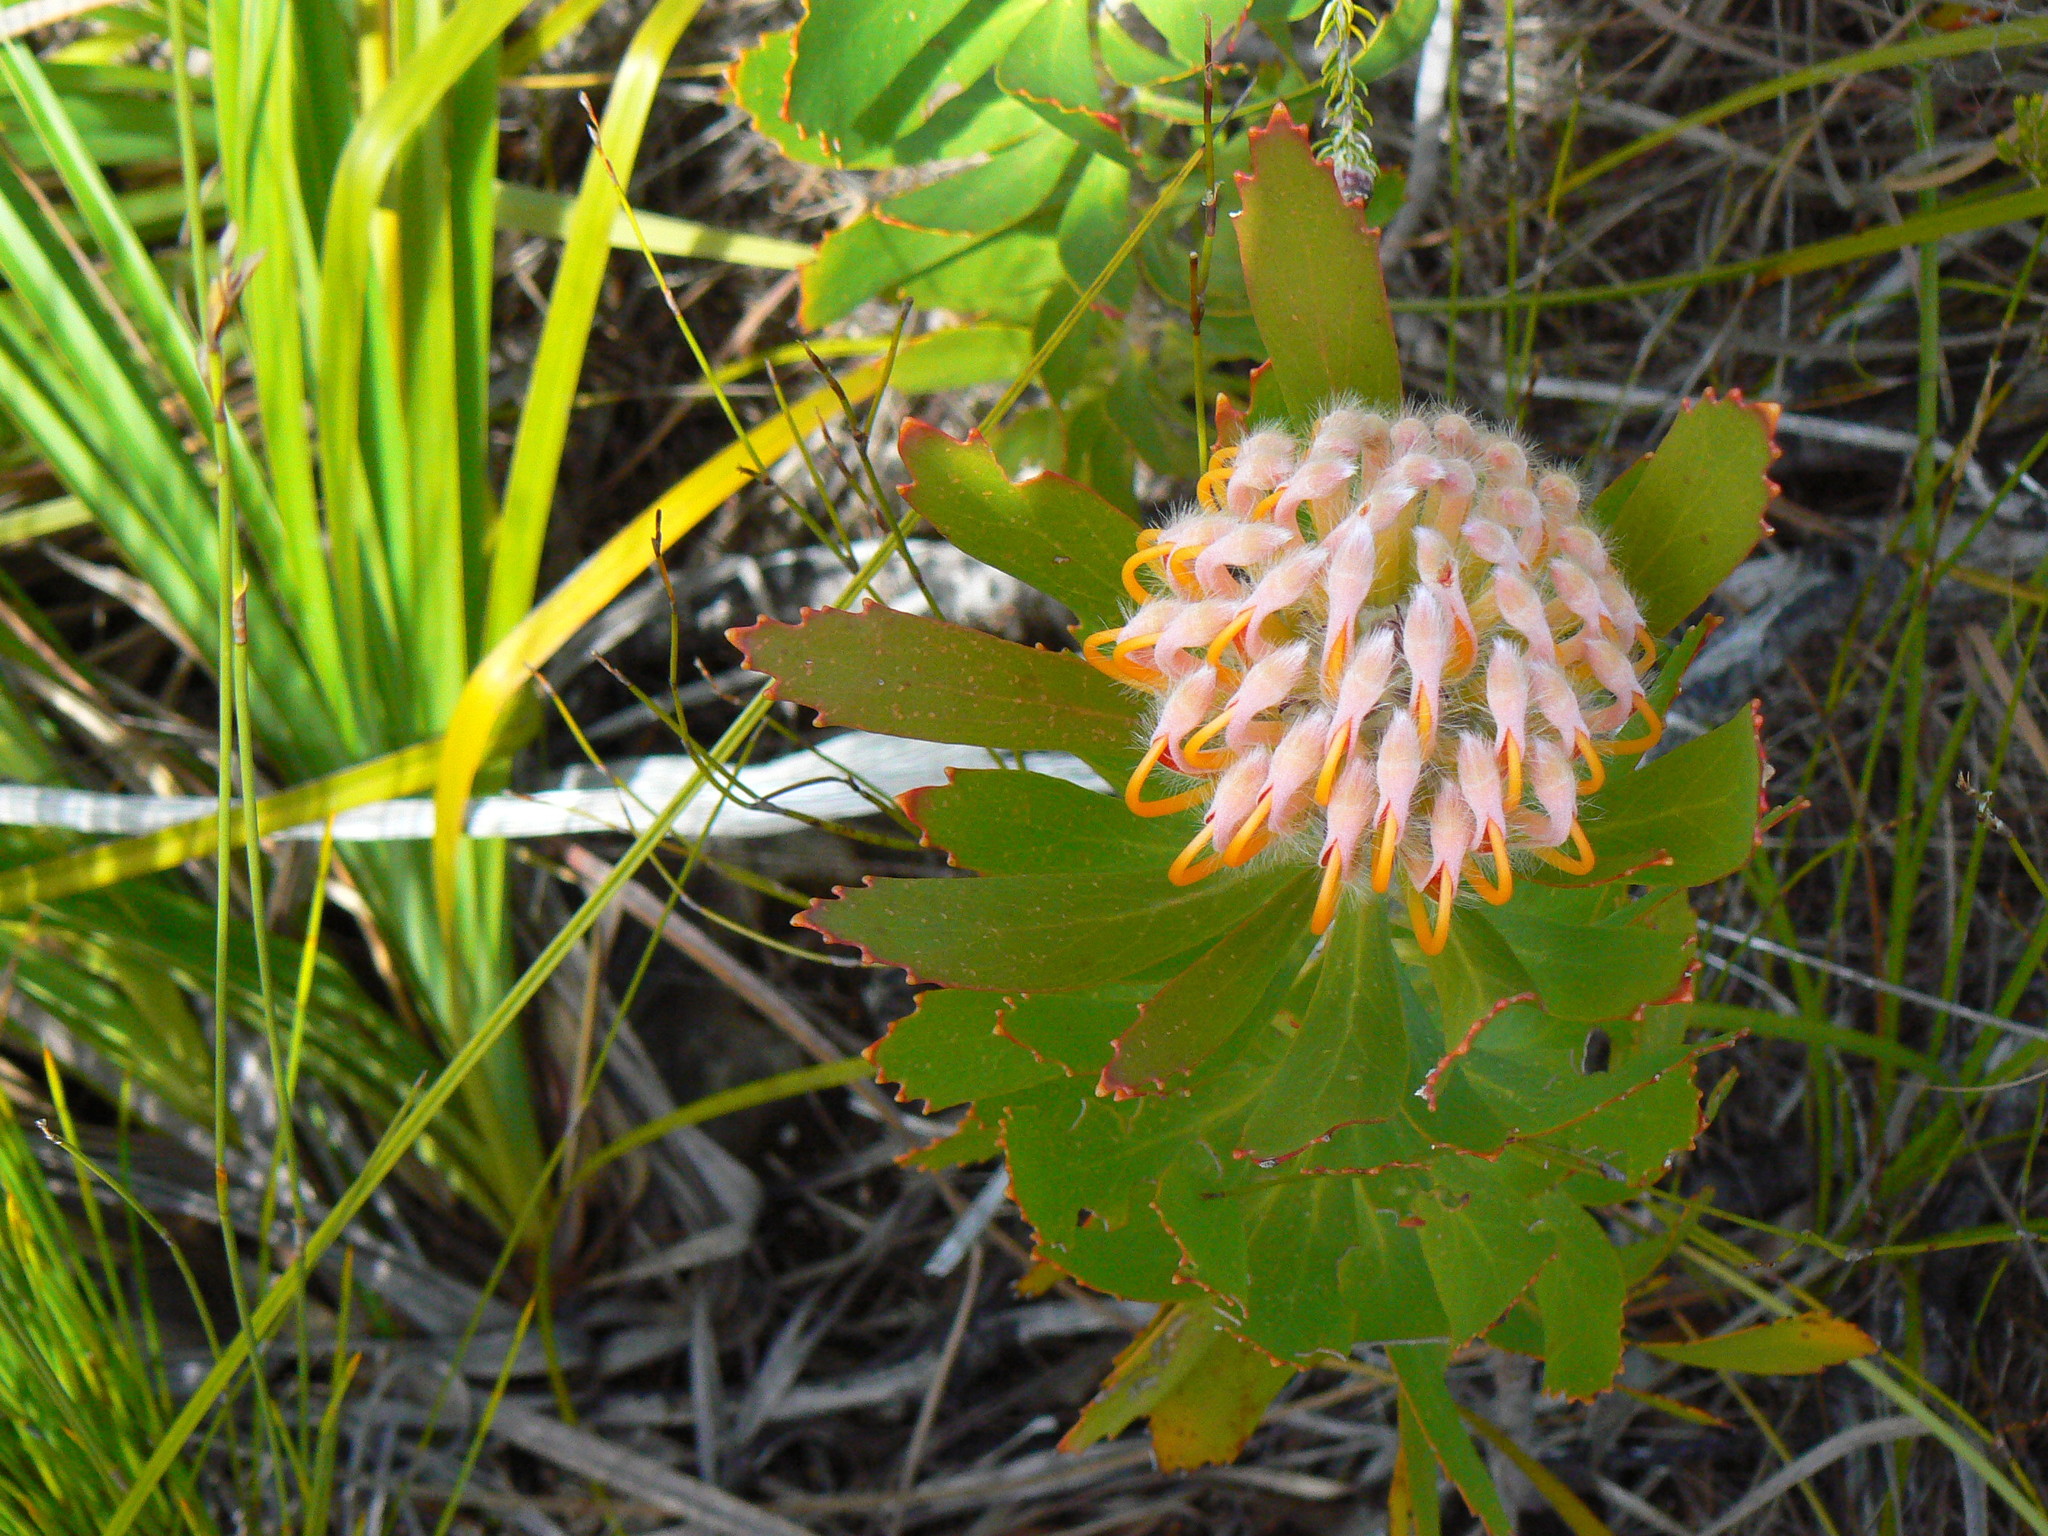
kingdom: Plantae
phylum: Tracheophyta
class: Magnoliopsida
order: Proteales
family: Proteaceae
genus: Leucospermum
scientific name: Leucospermum glabrum
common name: Outeniqua pincushion
